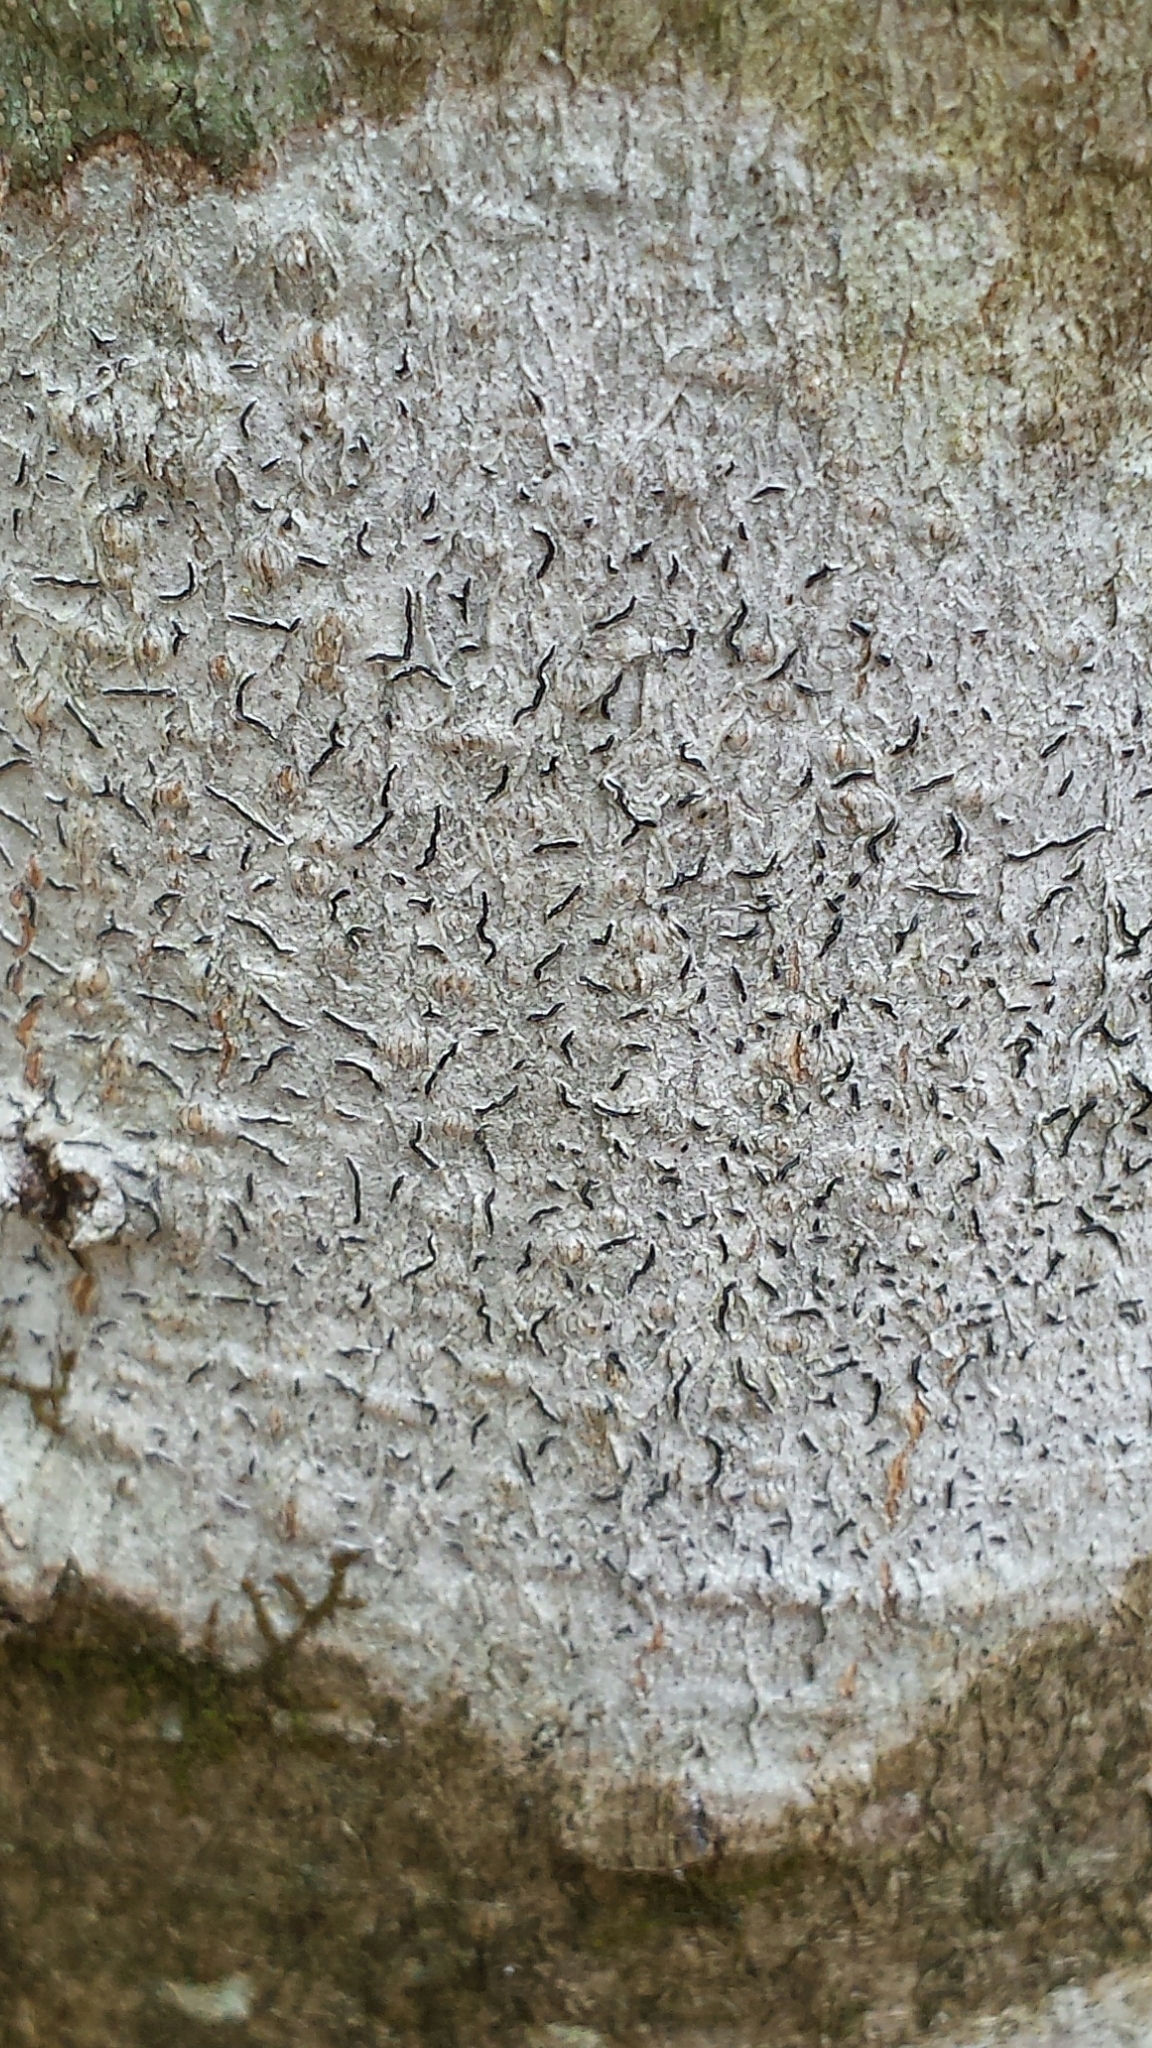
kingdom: Fungi
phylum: Ascomycota
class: Lecanoromycetes
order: Ostropales
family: Graphidaceae
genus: Graphis
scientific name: Graphis scripta
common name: Script lichen
